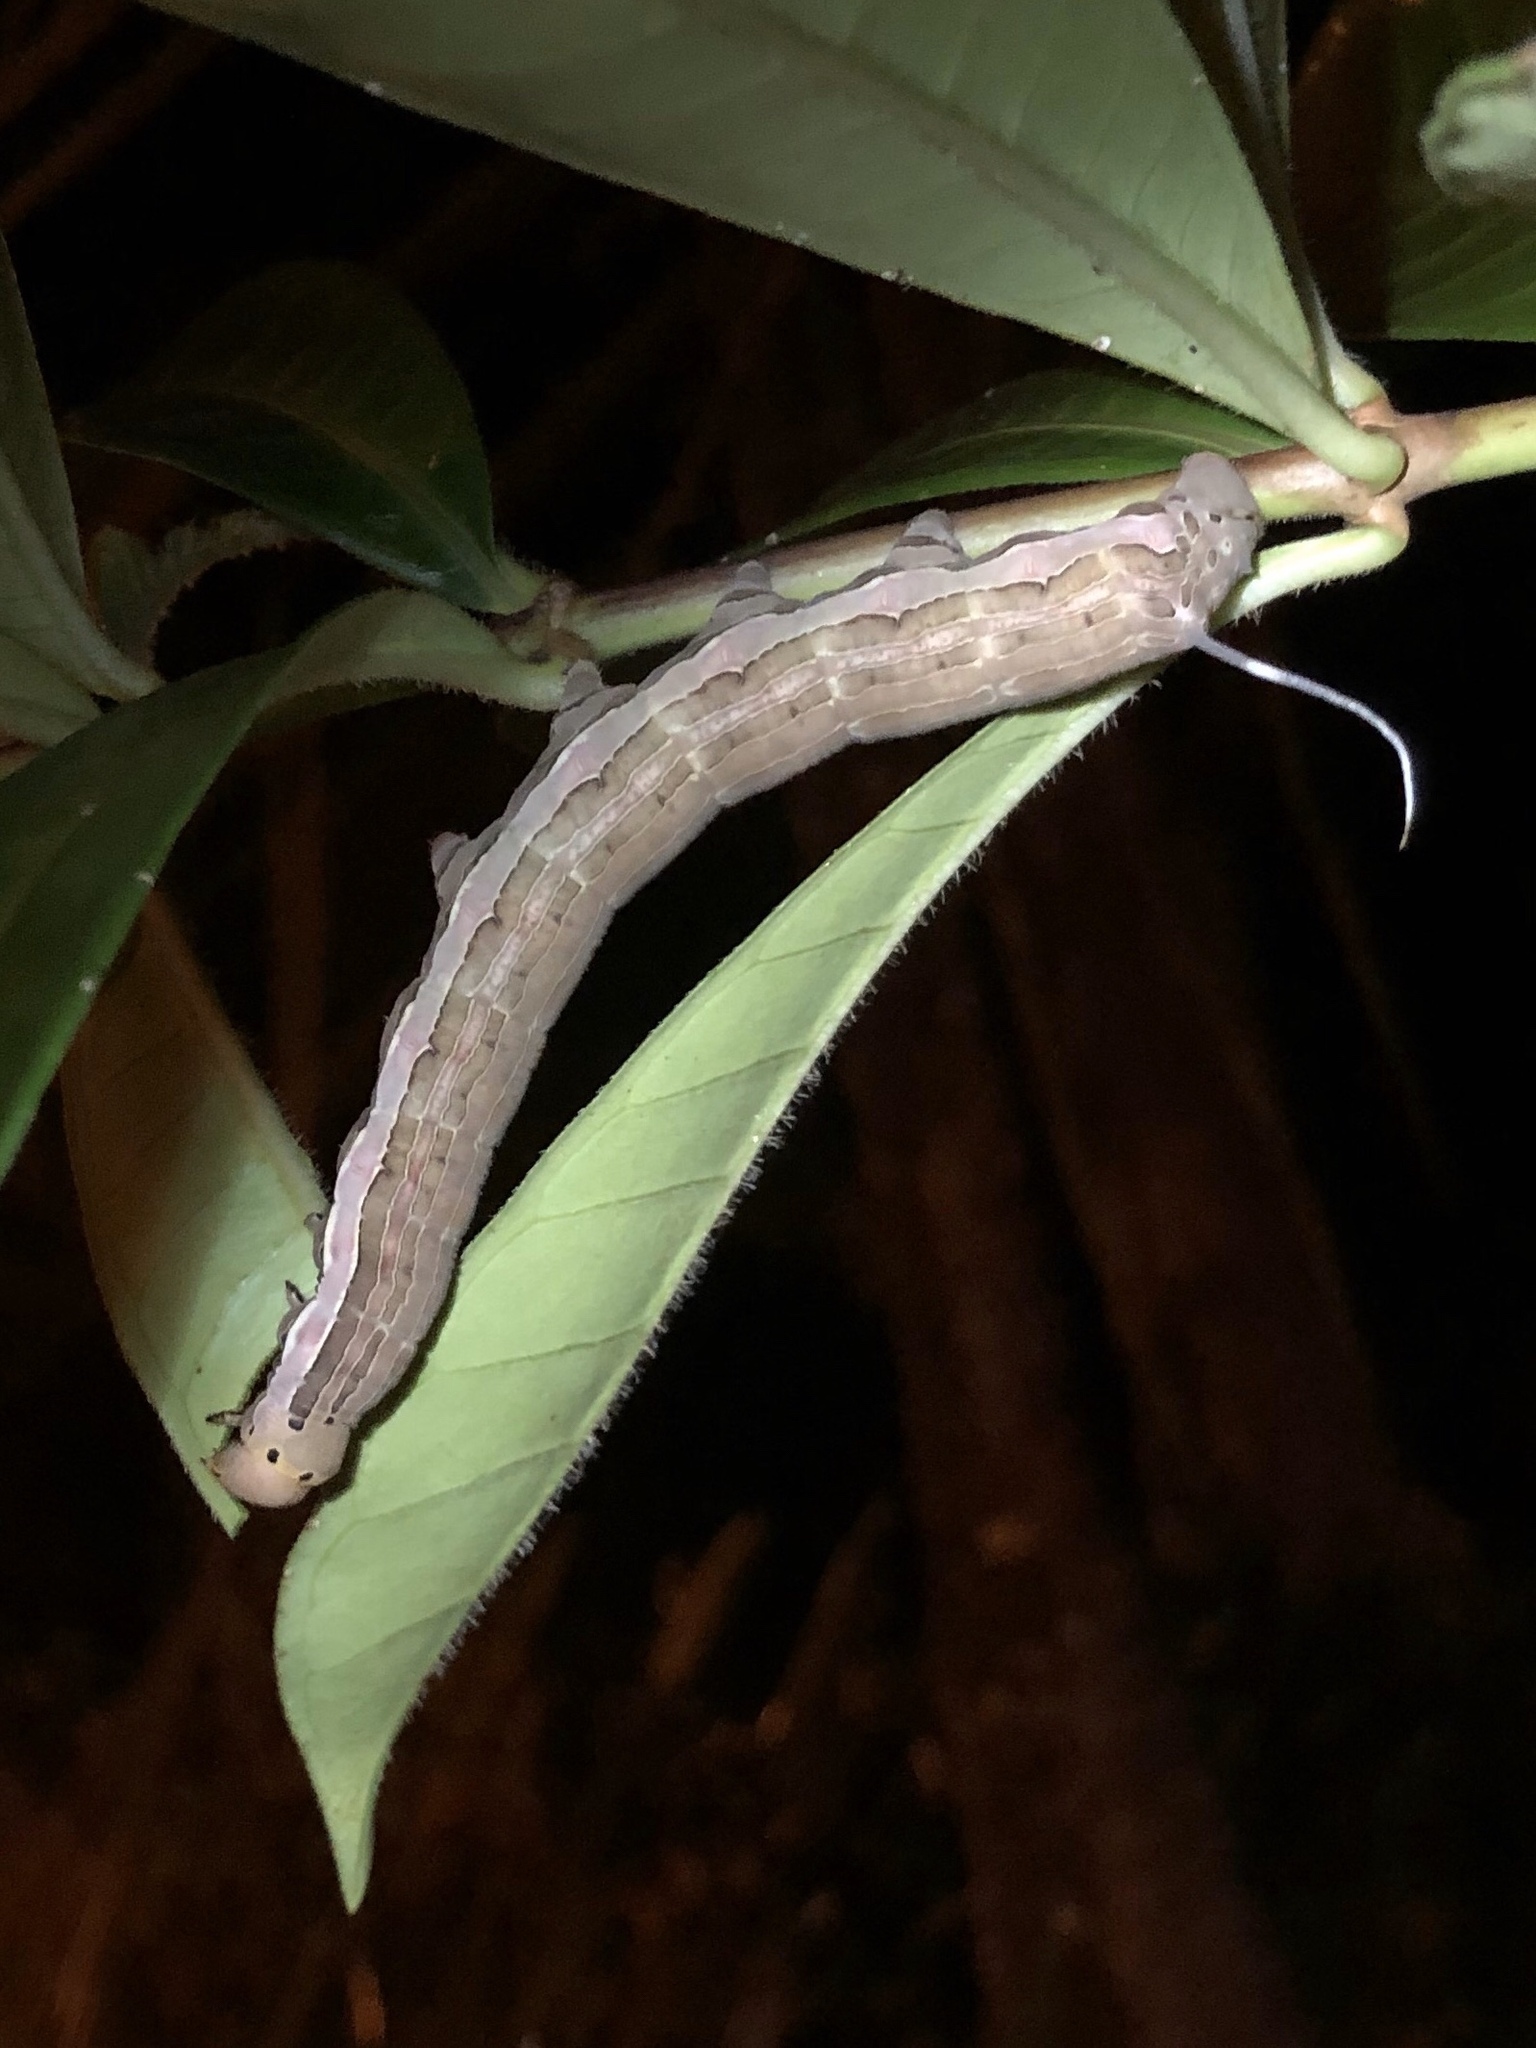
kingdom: Animalia
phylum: Arthropoda
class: Insecta
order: Lepidoptera
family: Sphingidae
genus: Isognathus
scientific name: Isognathus scyron
